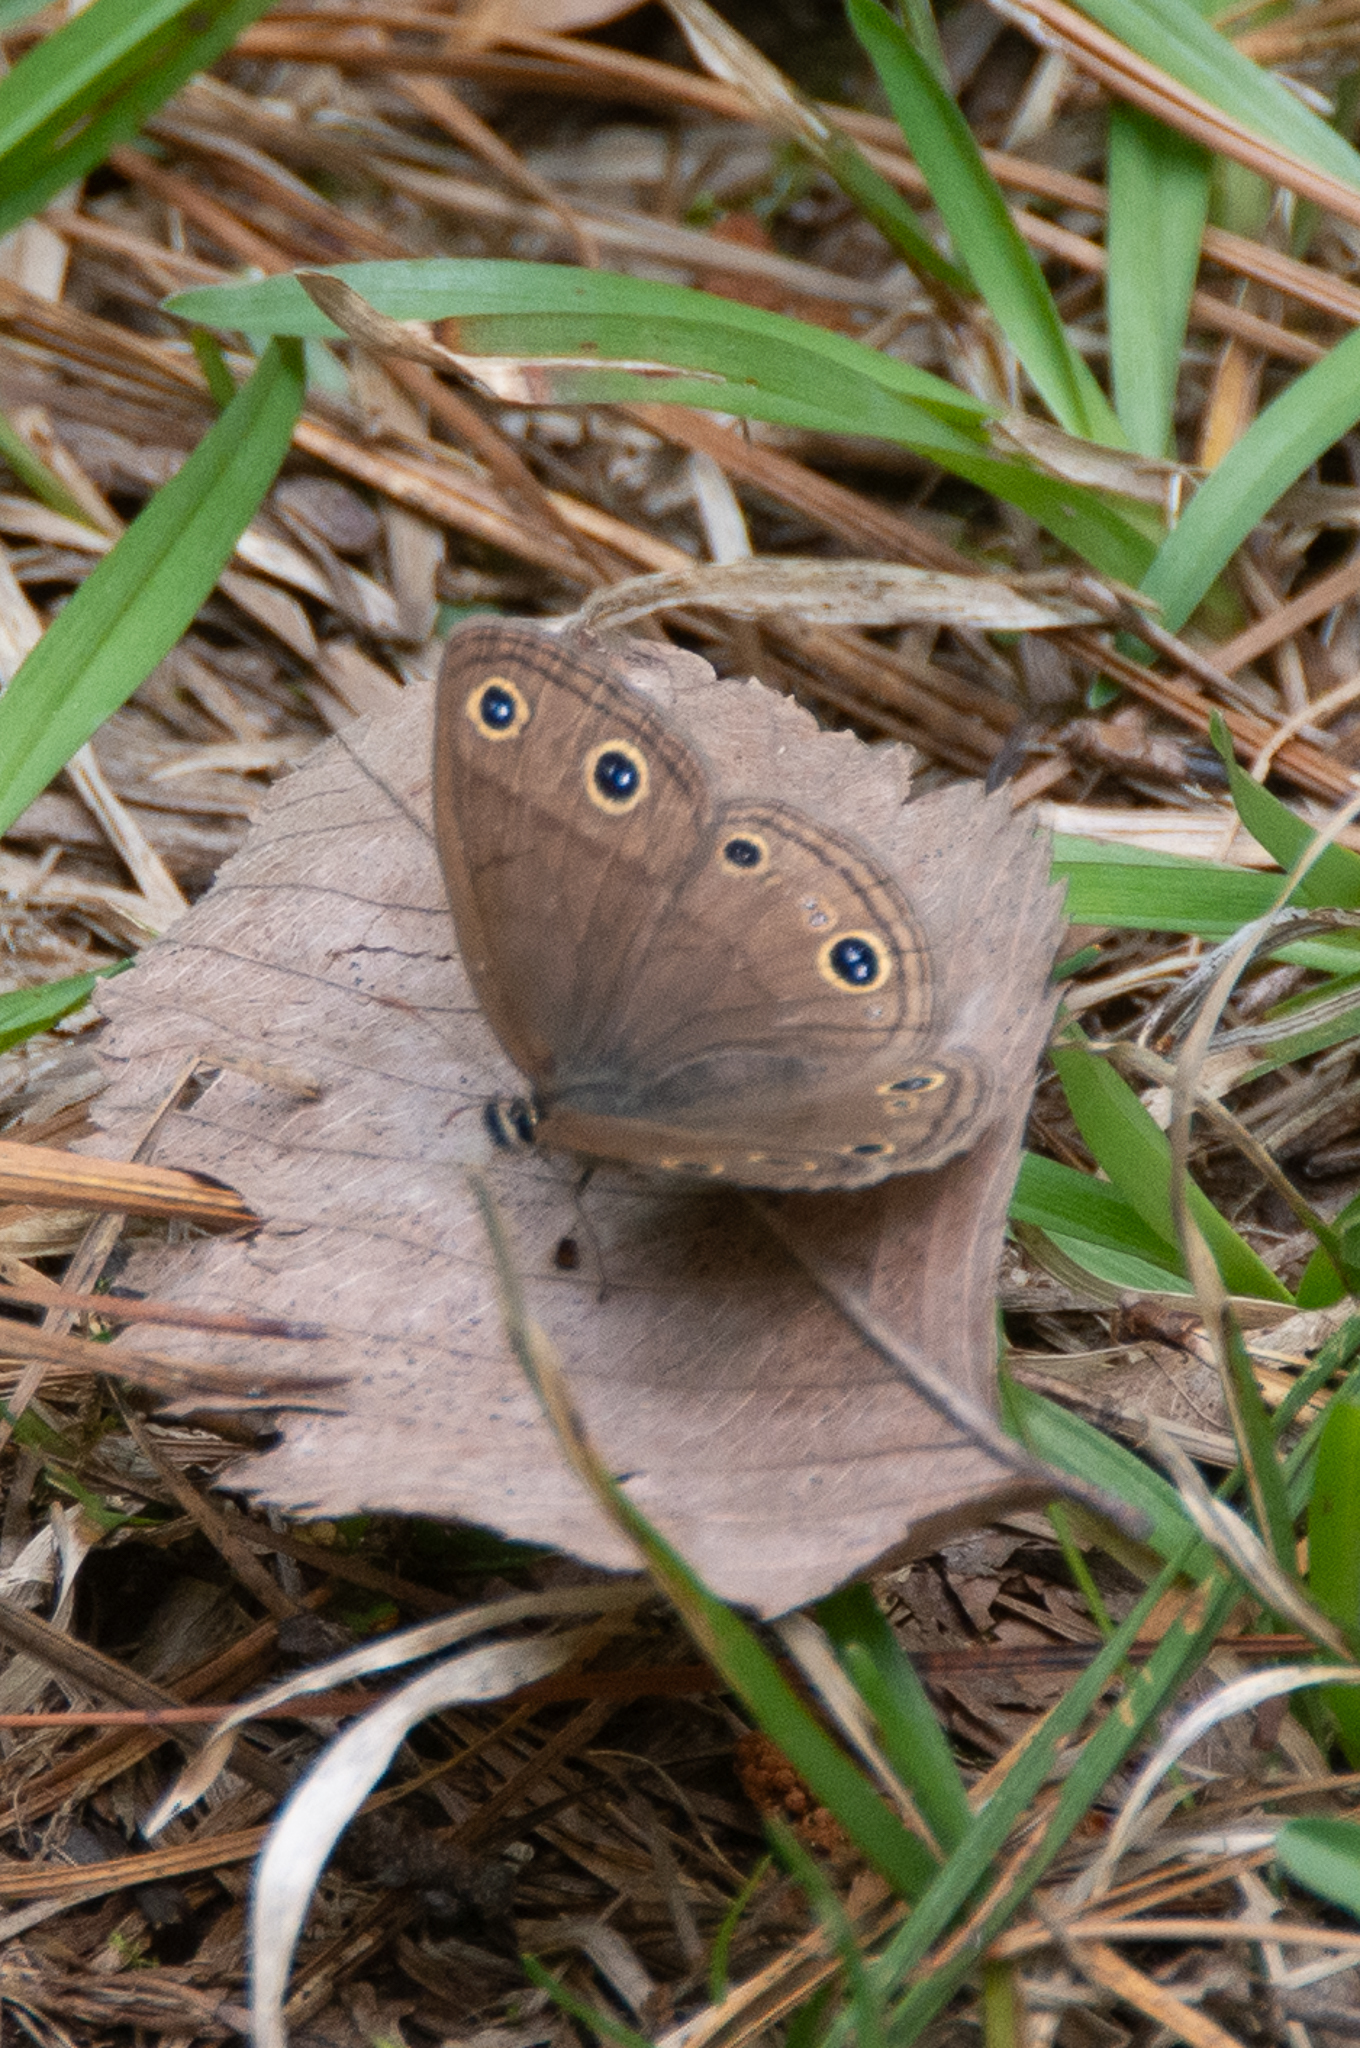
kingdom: Animalia
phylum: Arthropoda
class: Insecta
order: Lepidoptera
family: Nymphalidae
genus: Euptychia
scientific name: Euptychia cymela
